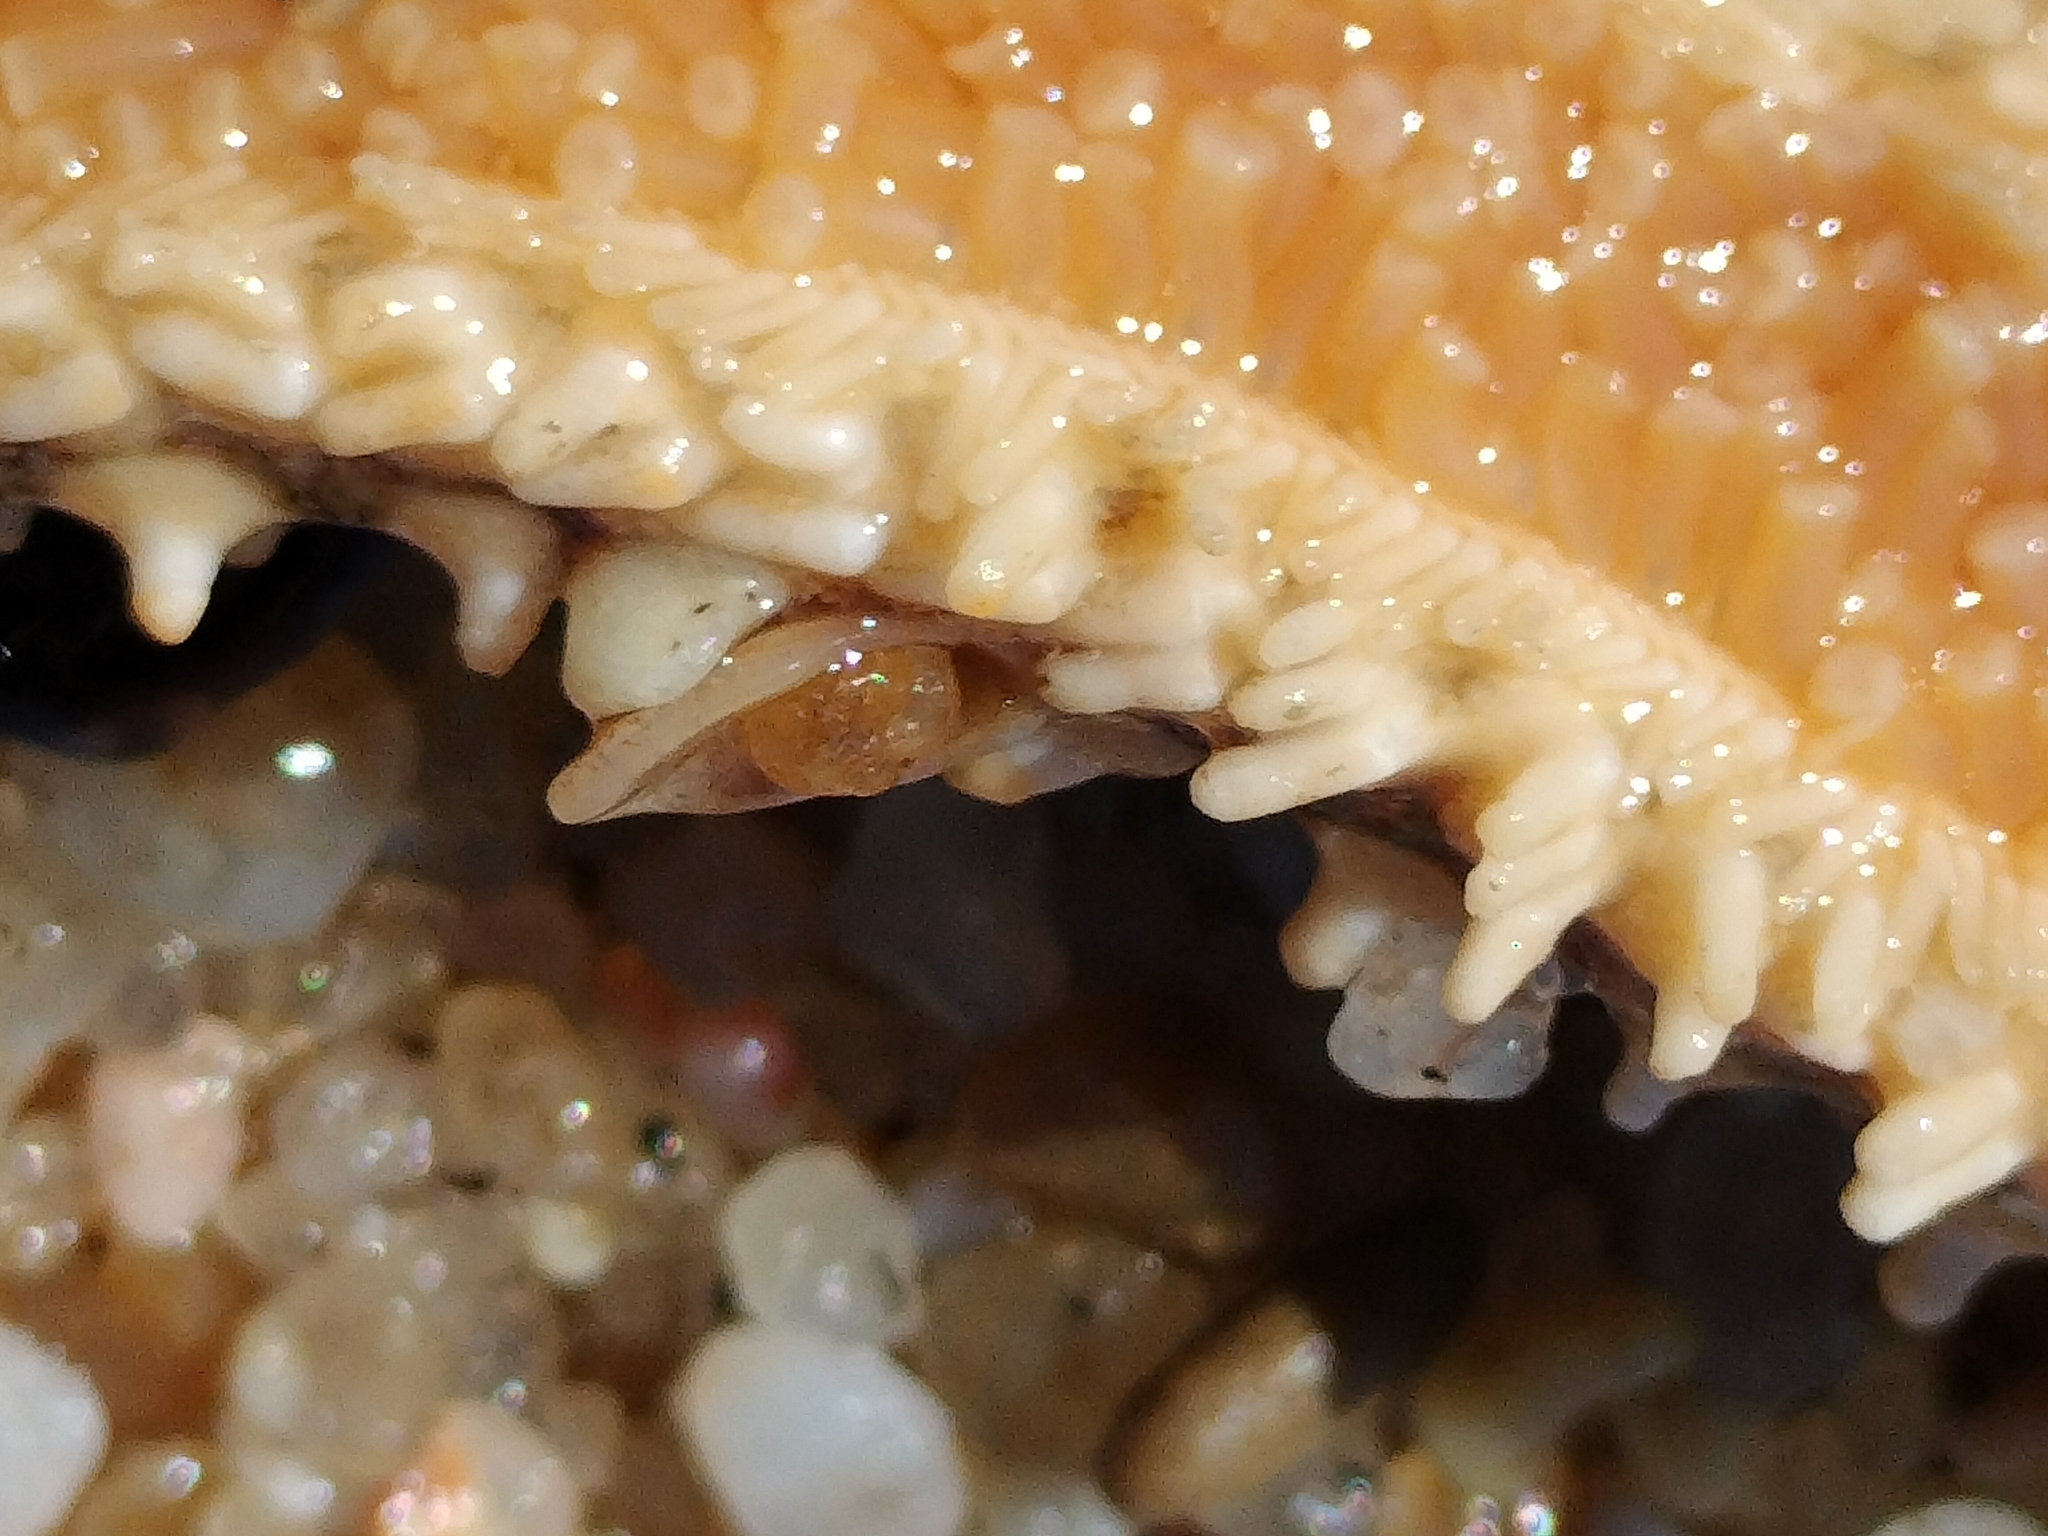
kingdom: Animalia
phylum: Echinodermata
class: Asteroidea
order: Forcipulatida
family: Asteriidae
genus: Marthasterias
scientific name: Marthasterias glacialis
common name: Spiny starfish
